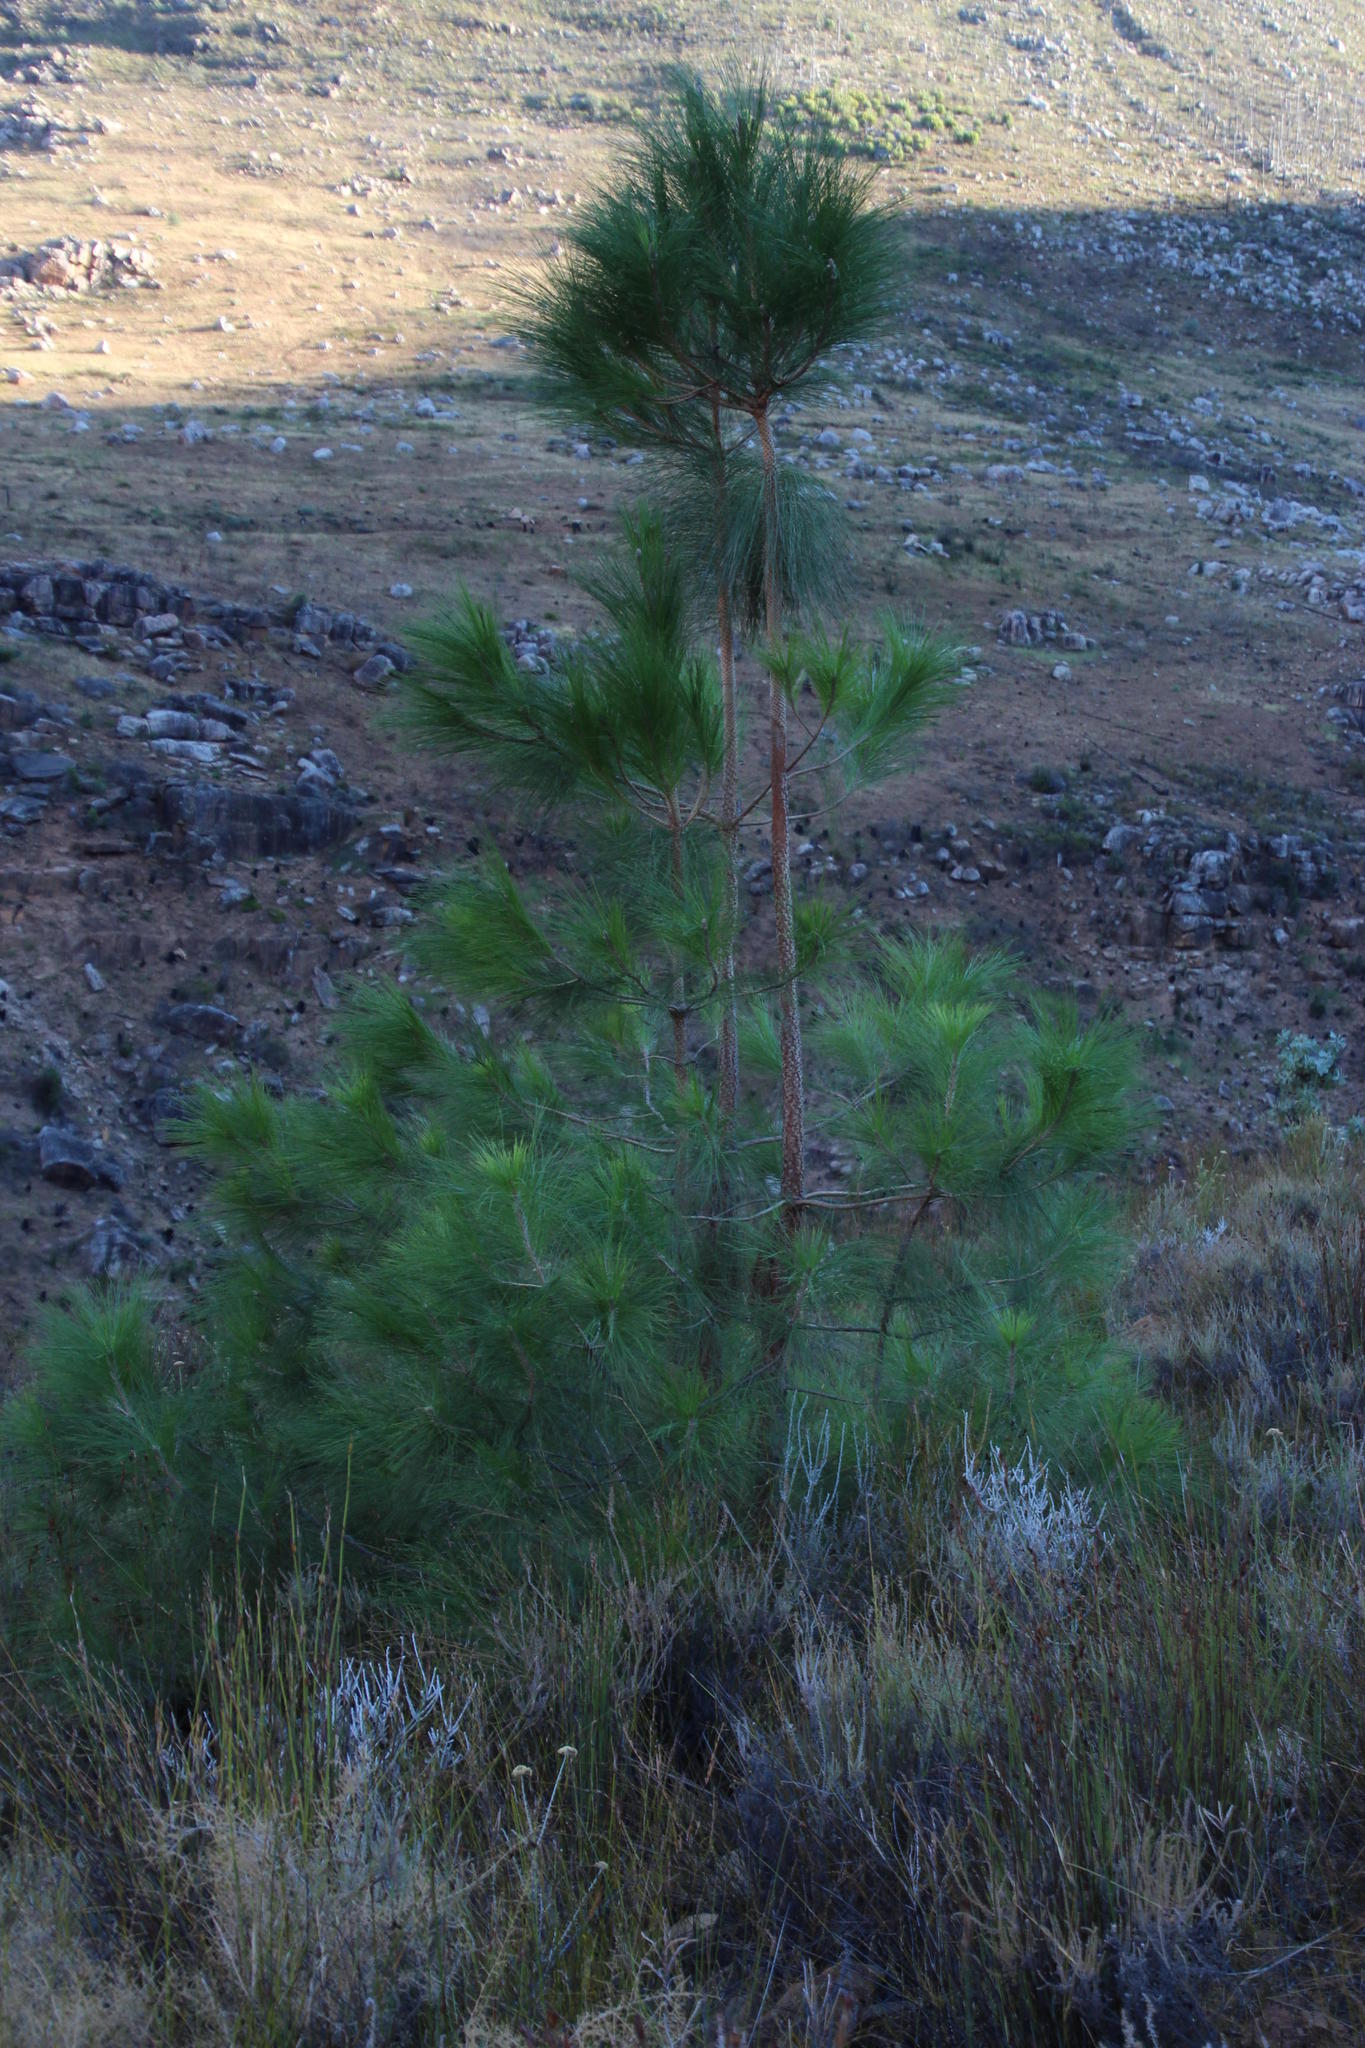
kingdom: Plantae
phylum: Tracheophyta
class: Pinopsida
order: Pinales
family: Pinaceae
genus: Pinus
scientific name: Pinus canariensis
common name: Canary islands pine
